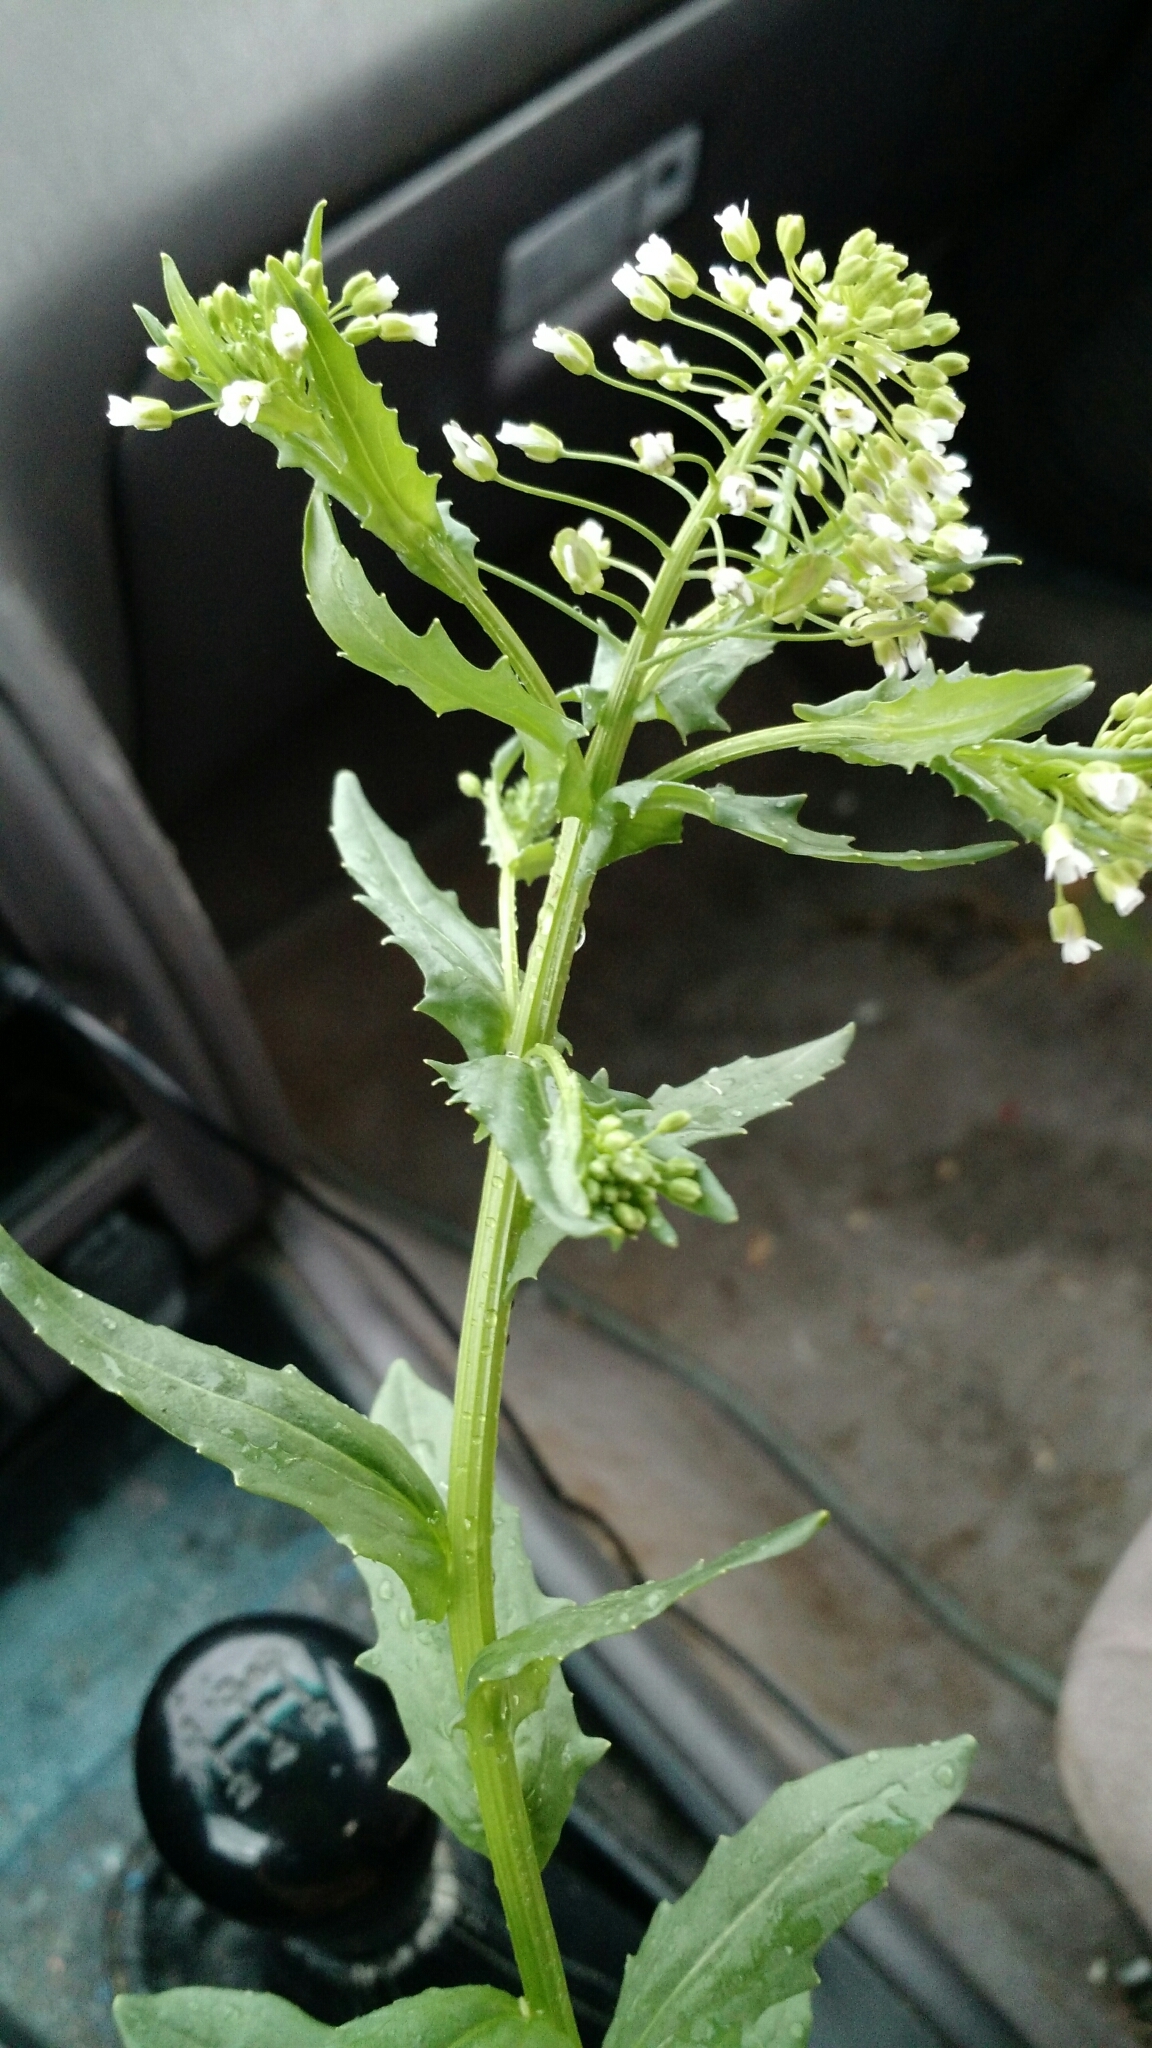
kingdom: Plantae
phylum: Tracheophyta
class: Magnoliopsida
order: Brassicales
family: Brassicaceae
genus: Thlaspi
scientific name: Thlaspi arvense
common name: Field pennycress
